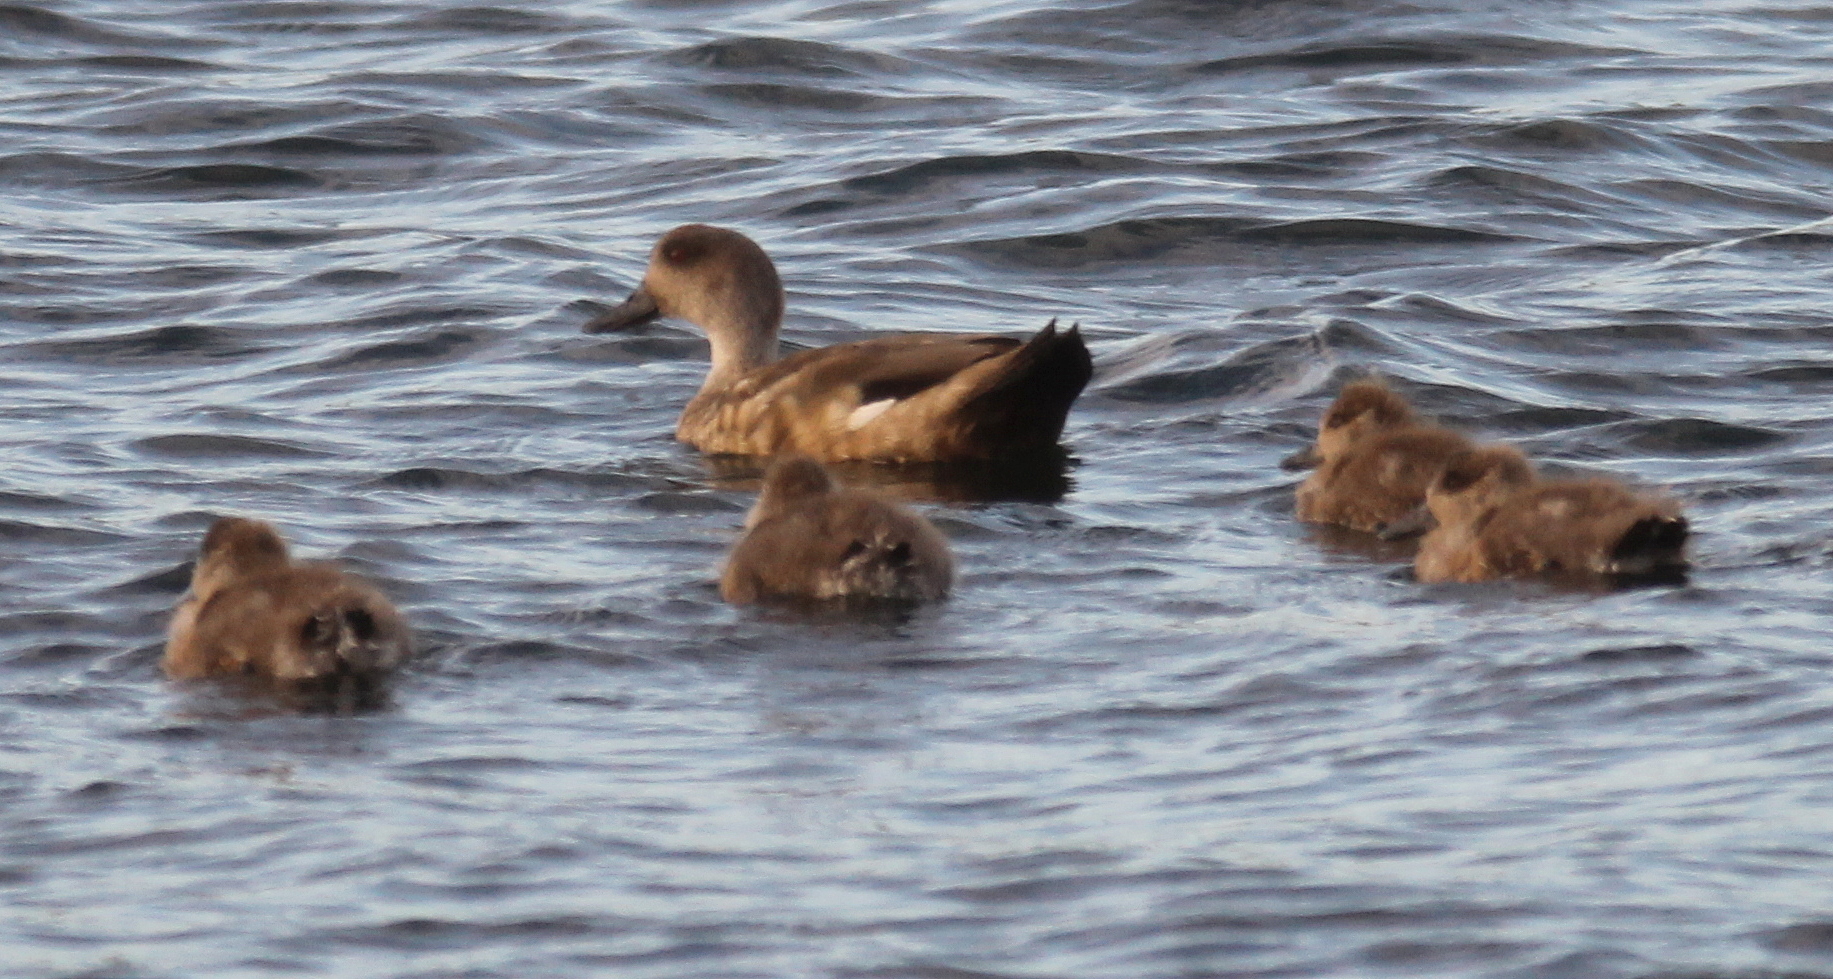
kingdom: Animalia
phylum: Chordata
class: Aves
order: Anseriformes
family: Anatidae
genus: Lophonetta
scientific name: Lophonetta specularioides
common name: Crested duck
